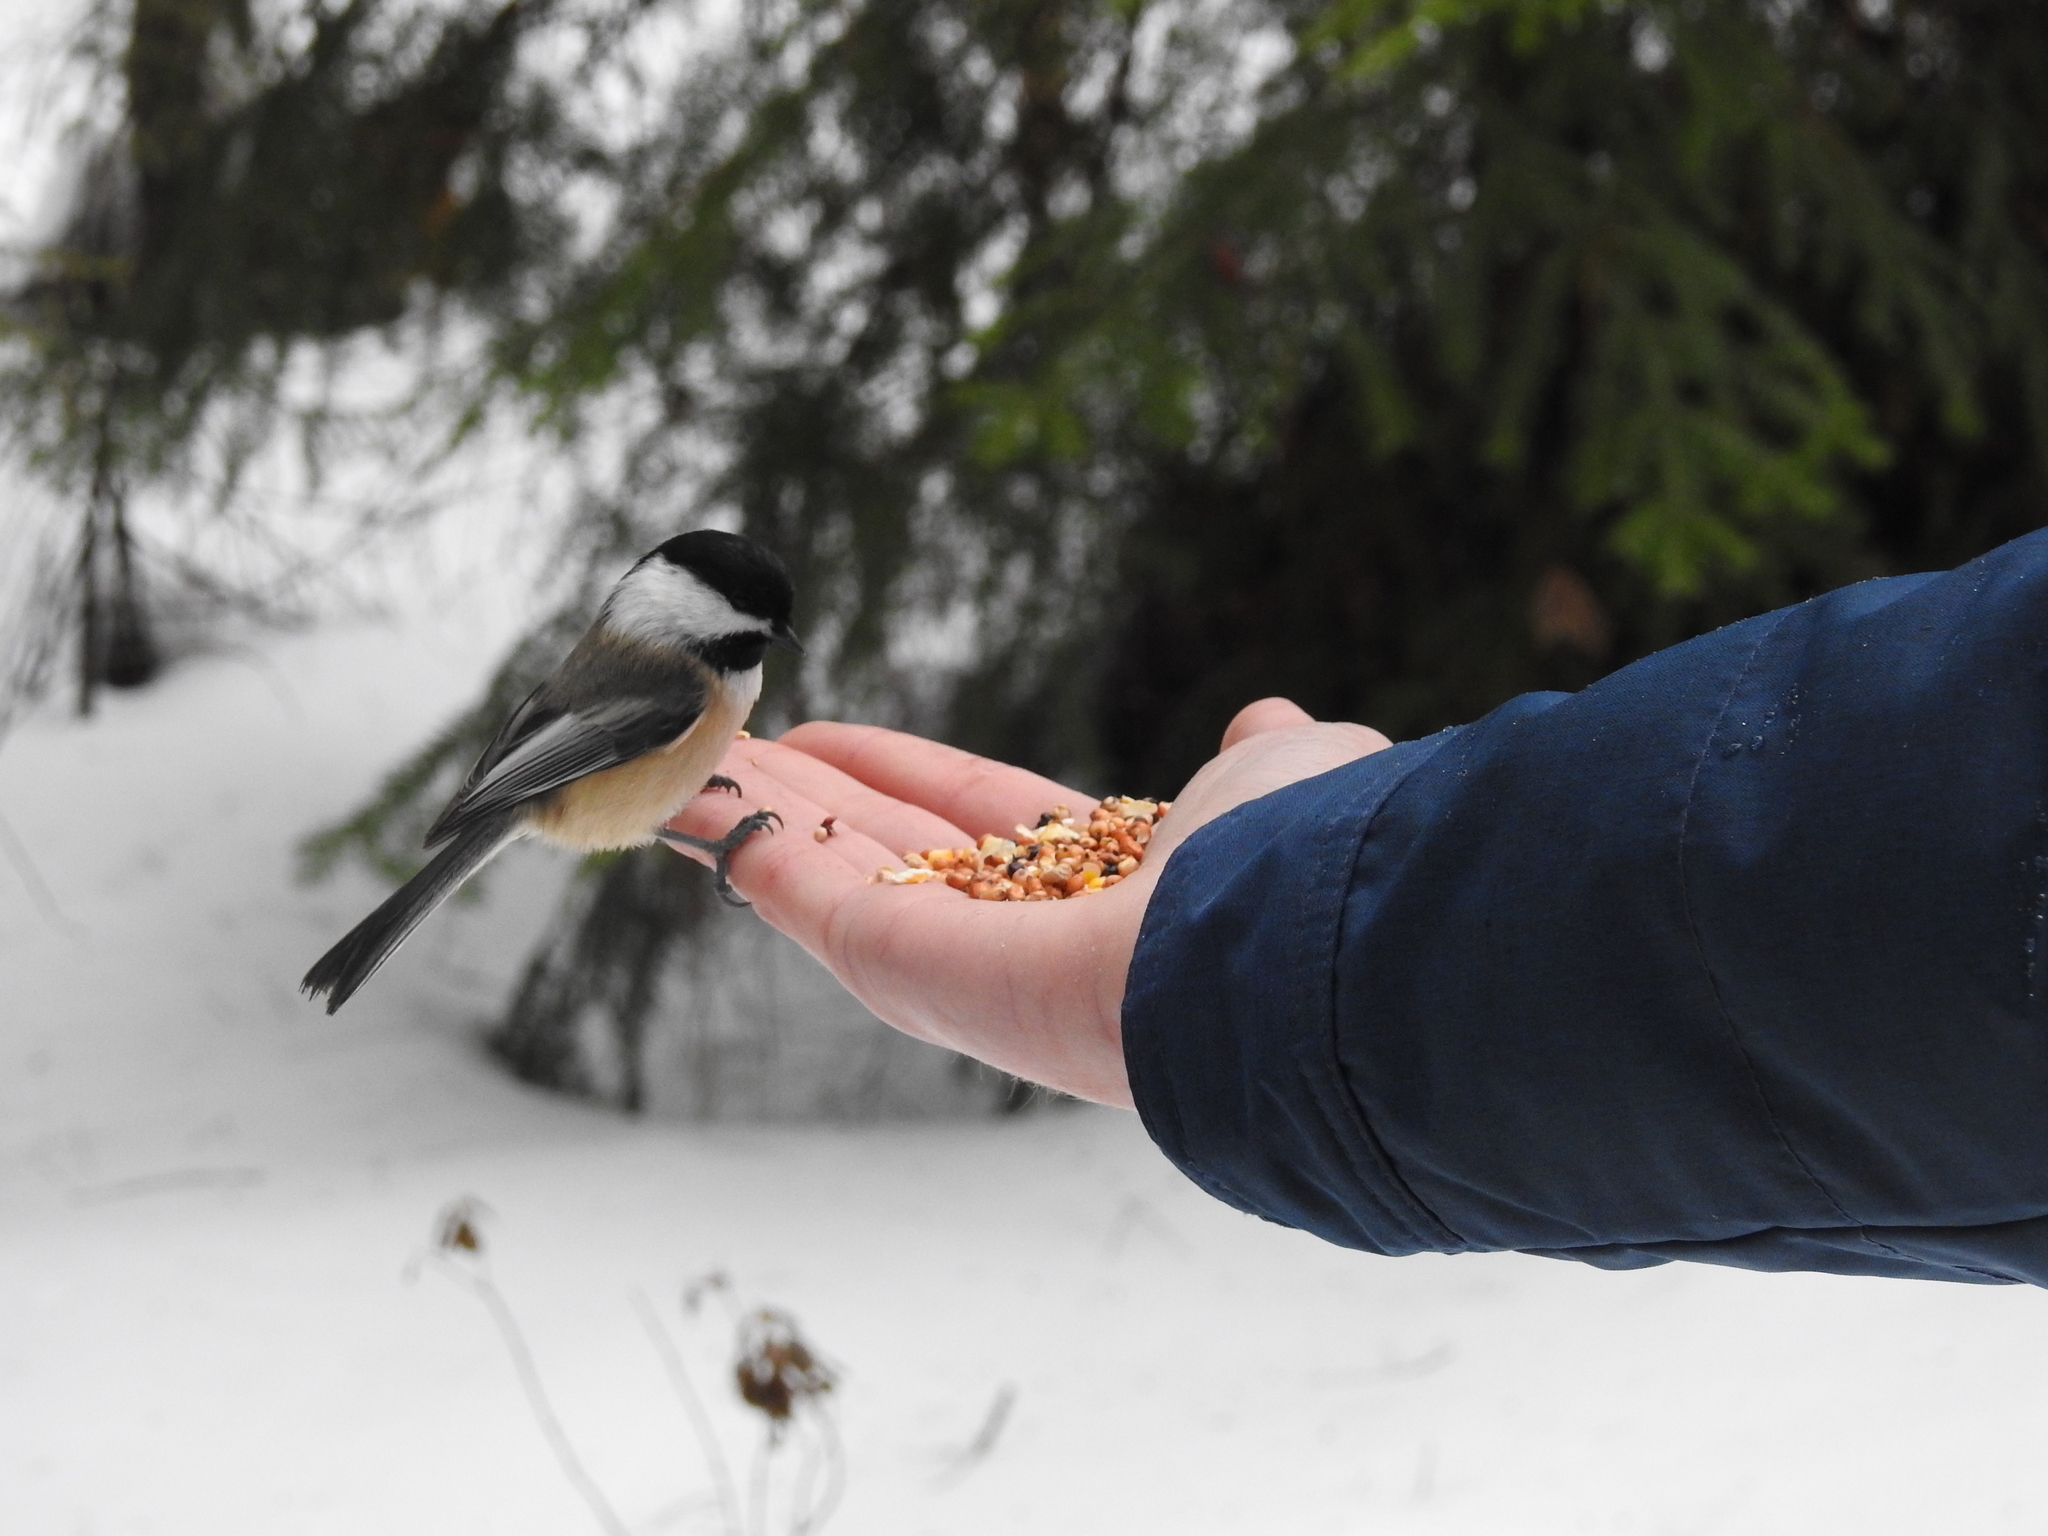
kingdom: Animalia
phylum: Chordata
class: Aves
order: Passeriformes
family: Paridae
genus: Poecile
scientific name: Poecile atricapillus
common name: Black-capped chickadee
